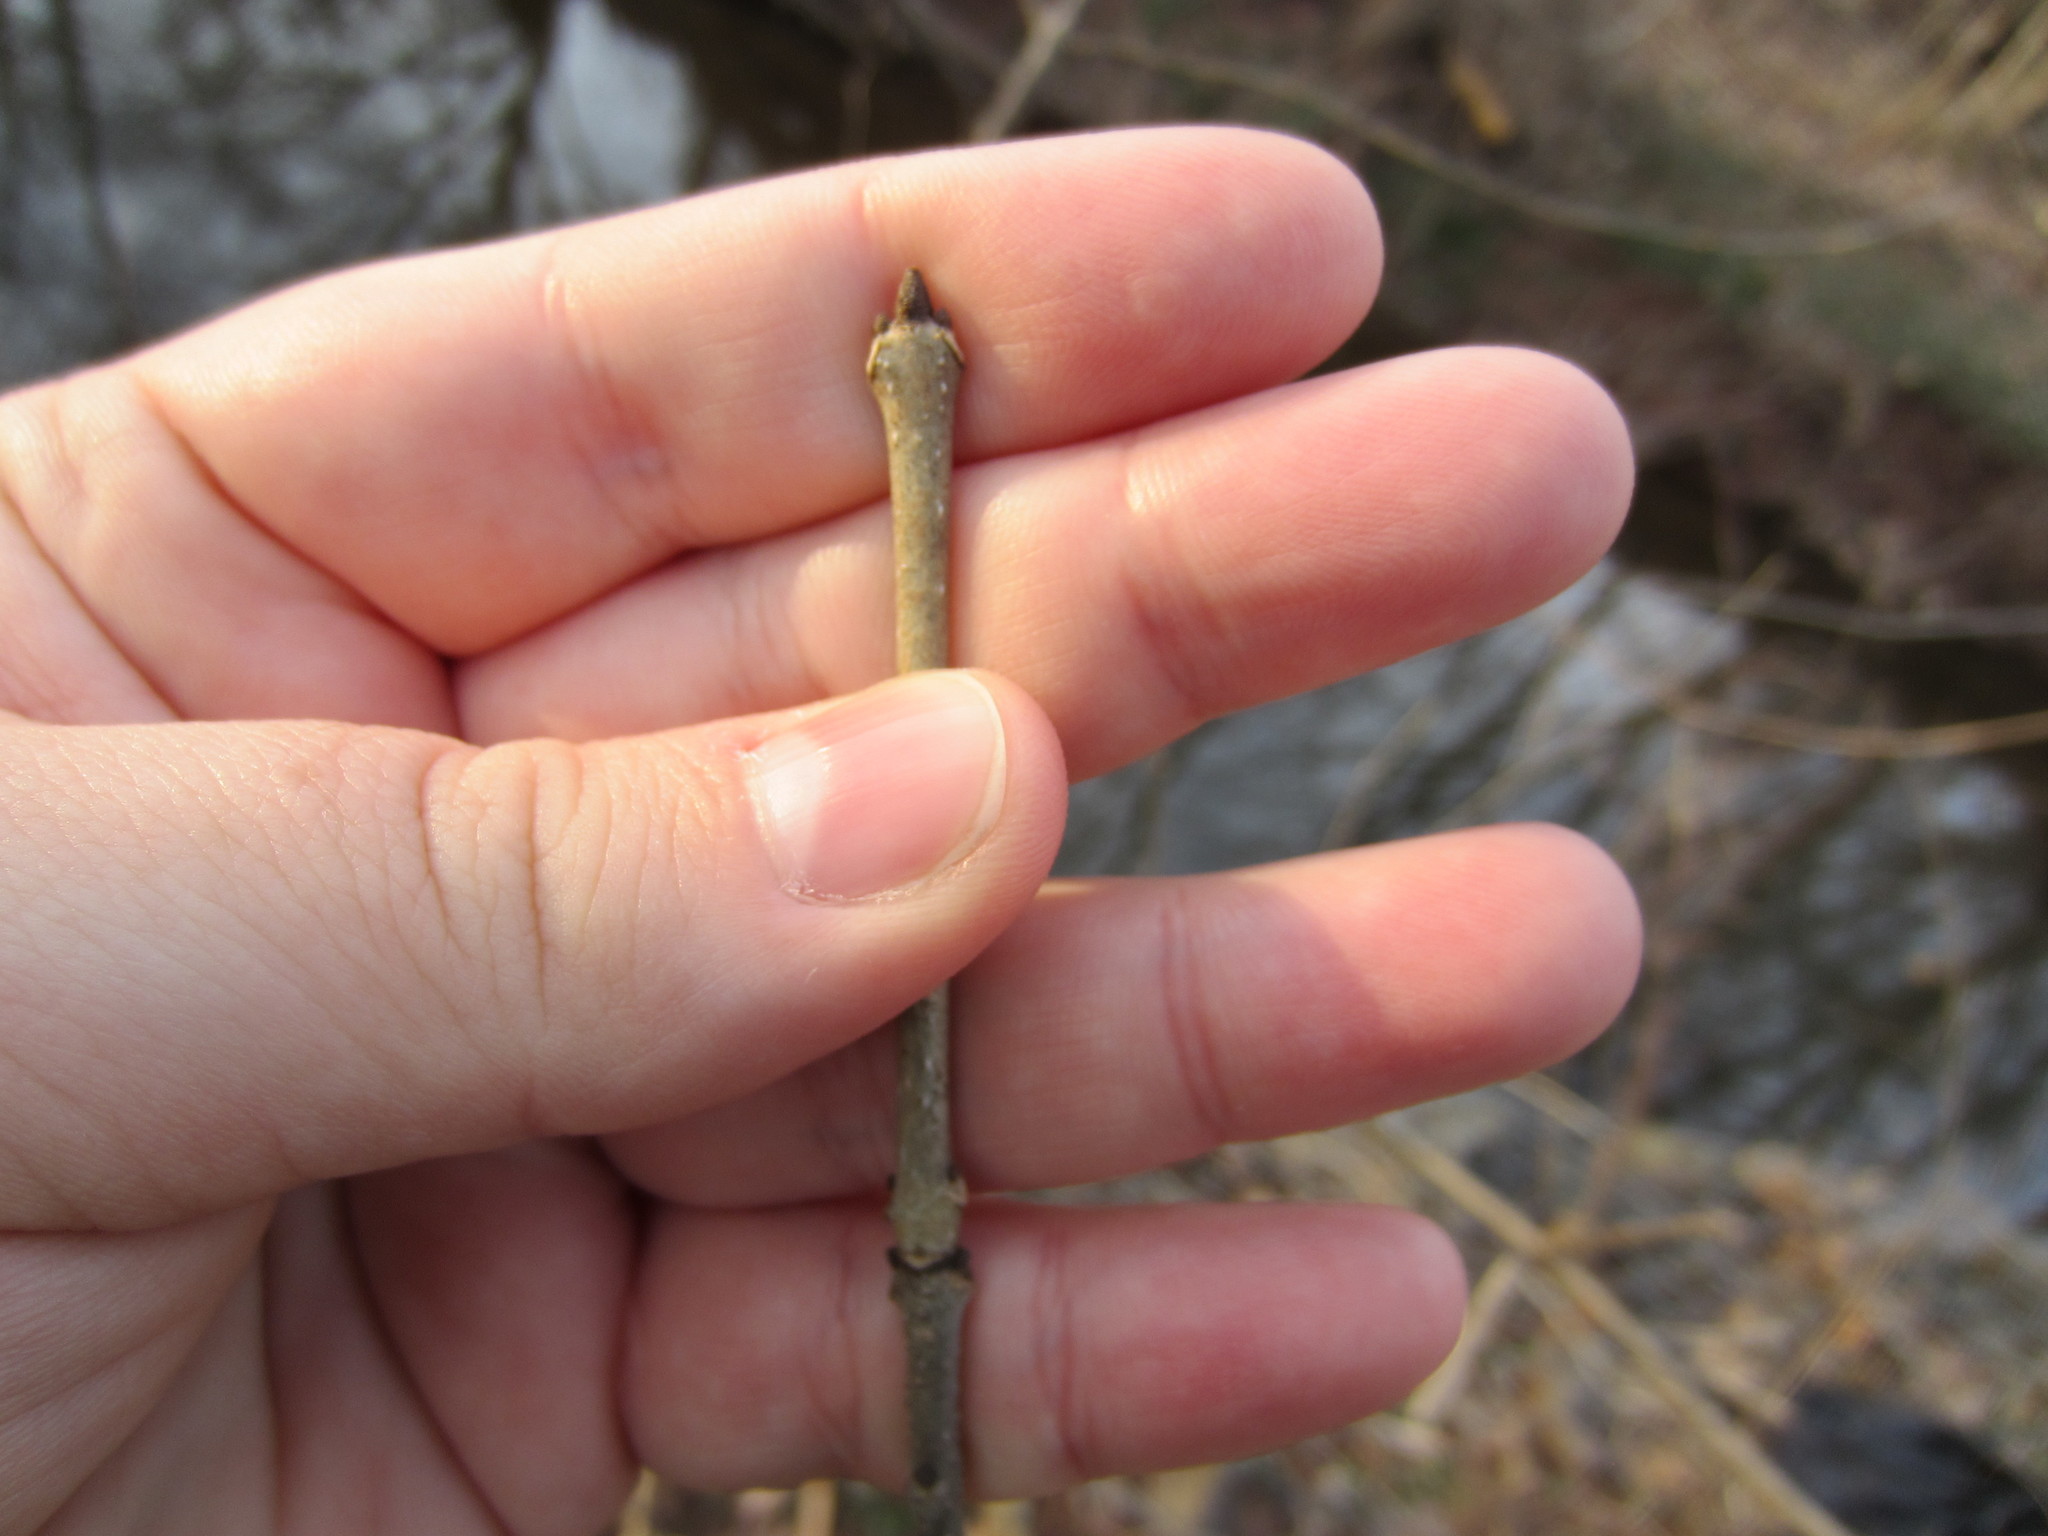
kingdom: Plantae
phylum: Tracheophyta
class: Magnoliopsida
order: Lamiales
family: Oleaceae
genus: Fraxinus
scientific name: Fraxinus pennsylvanica
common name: Green ash
